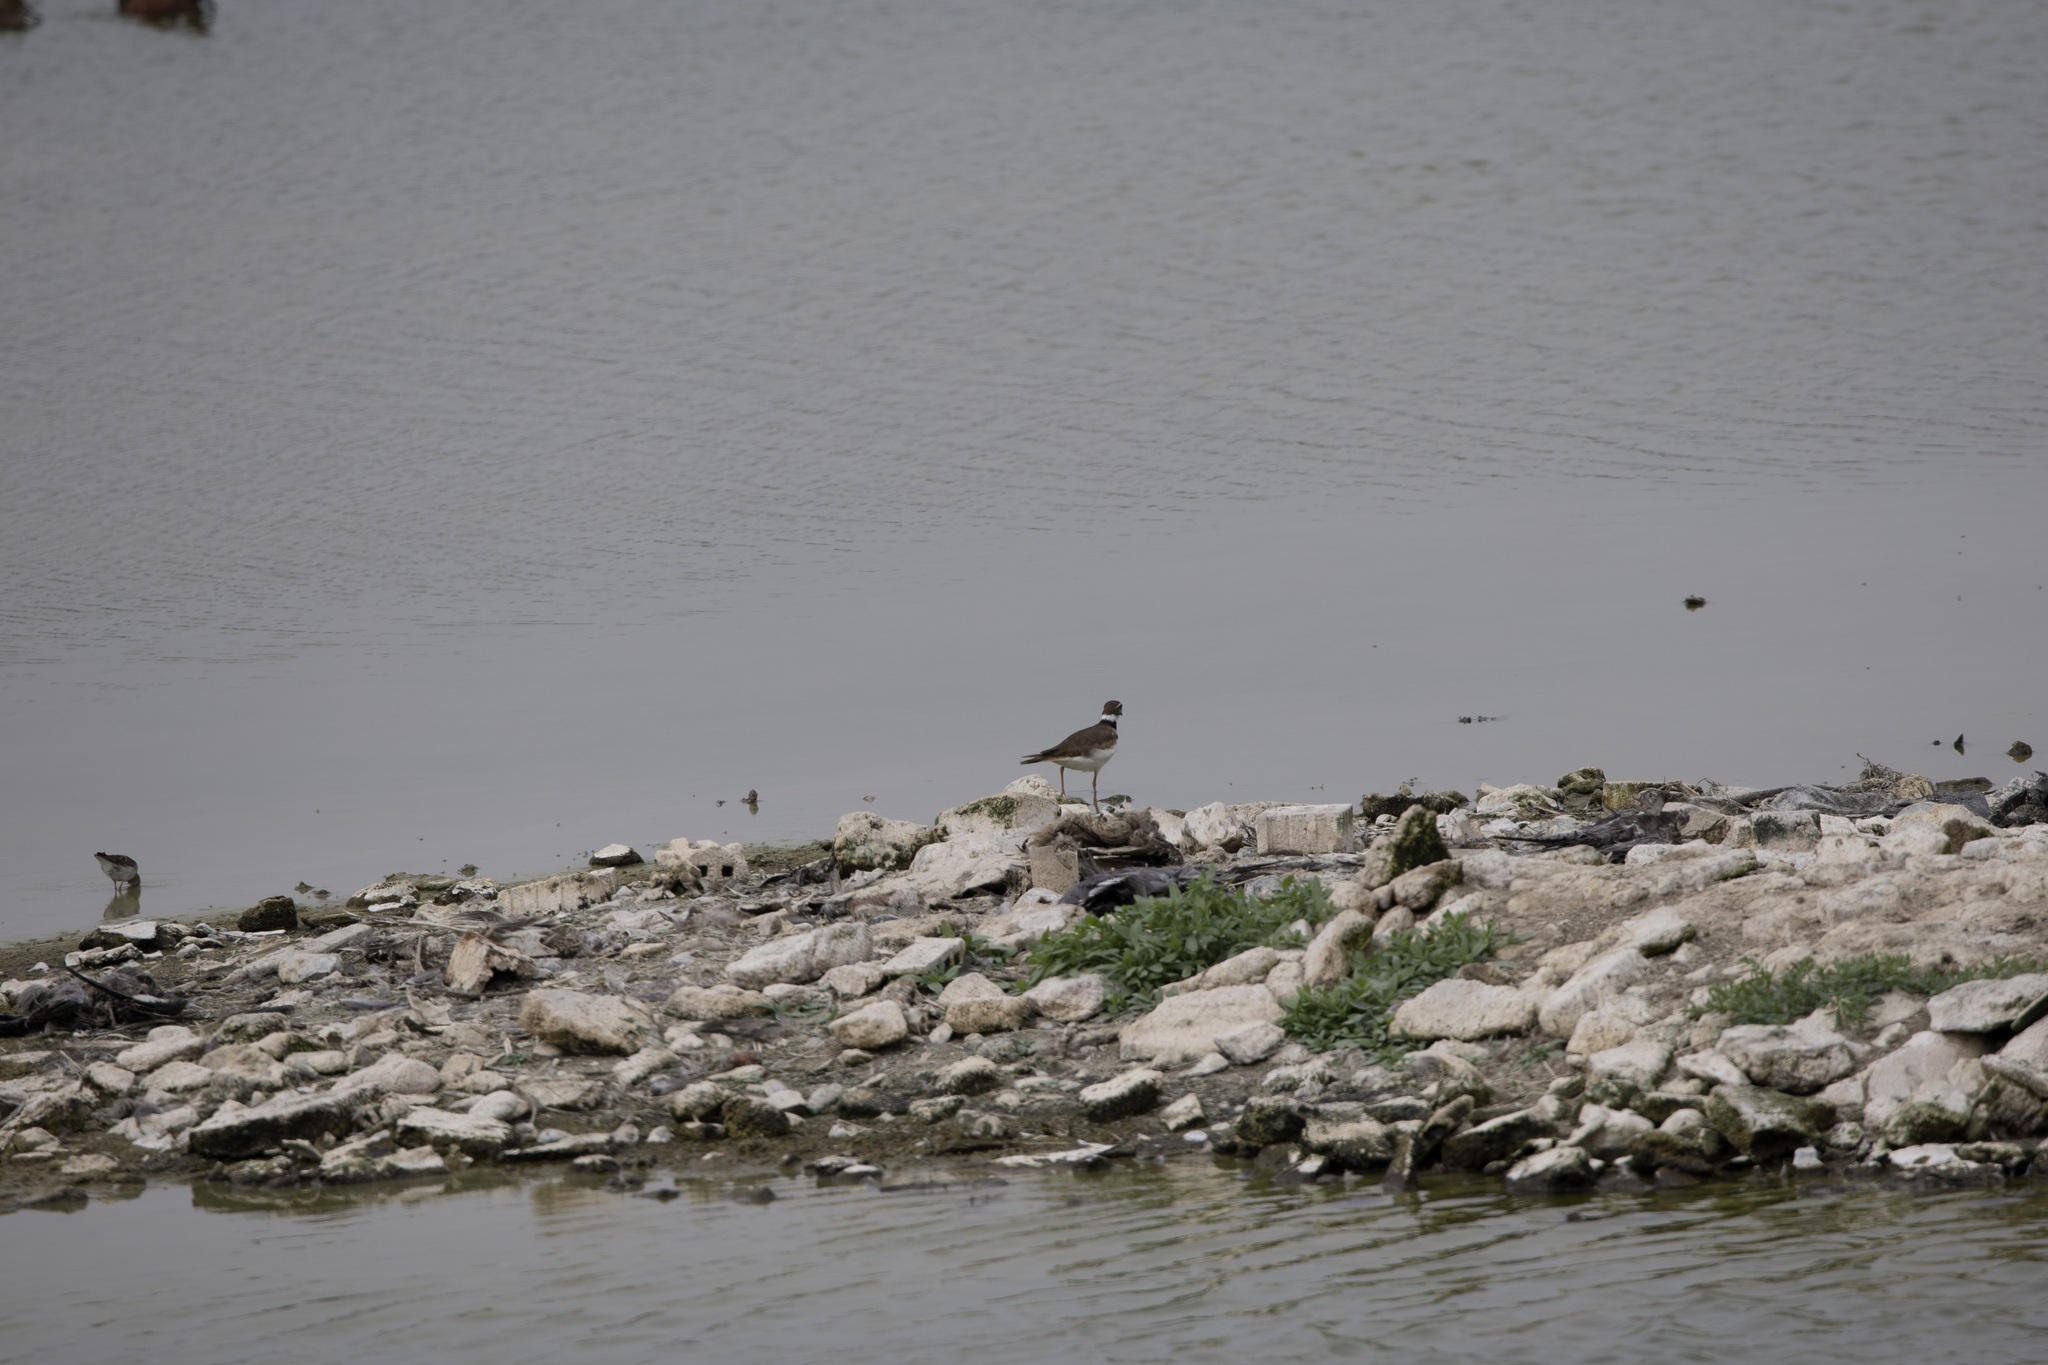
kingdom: Animalia
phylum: Chordata
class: Aves
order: Charadriiformes
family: Charadriidae
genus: Charadrius
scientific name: Charadrius vociferus
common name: Killdeer
